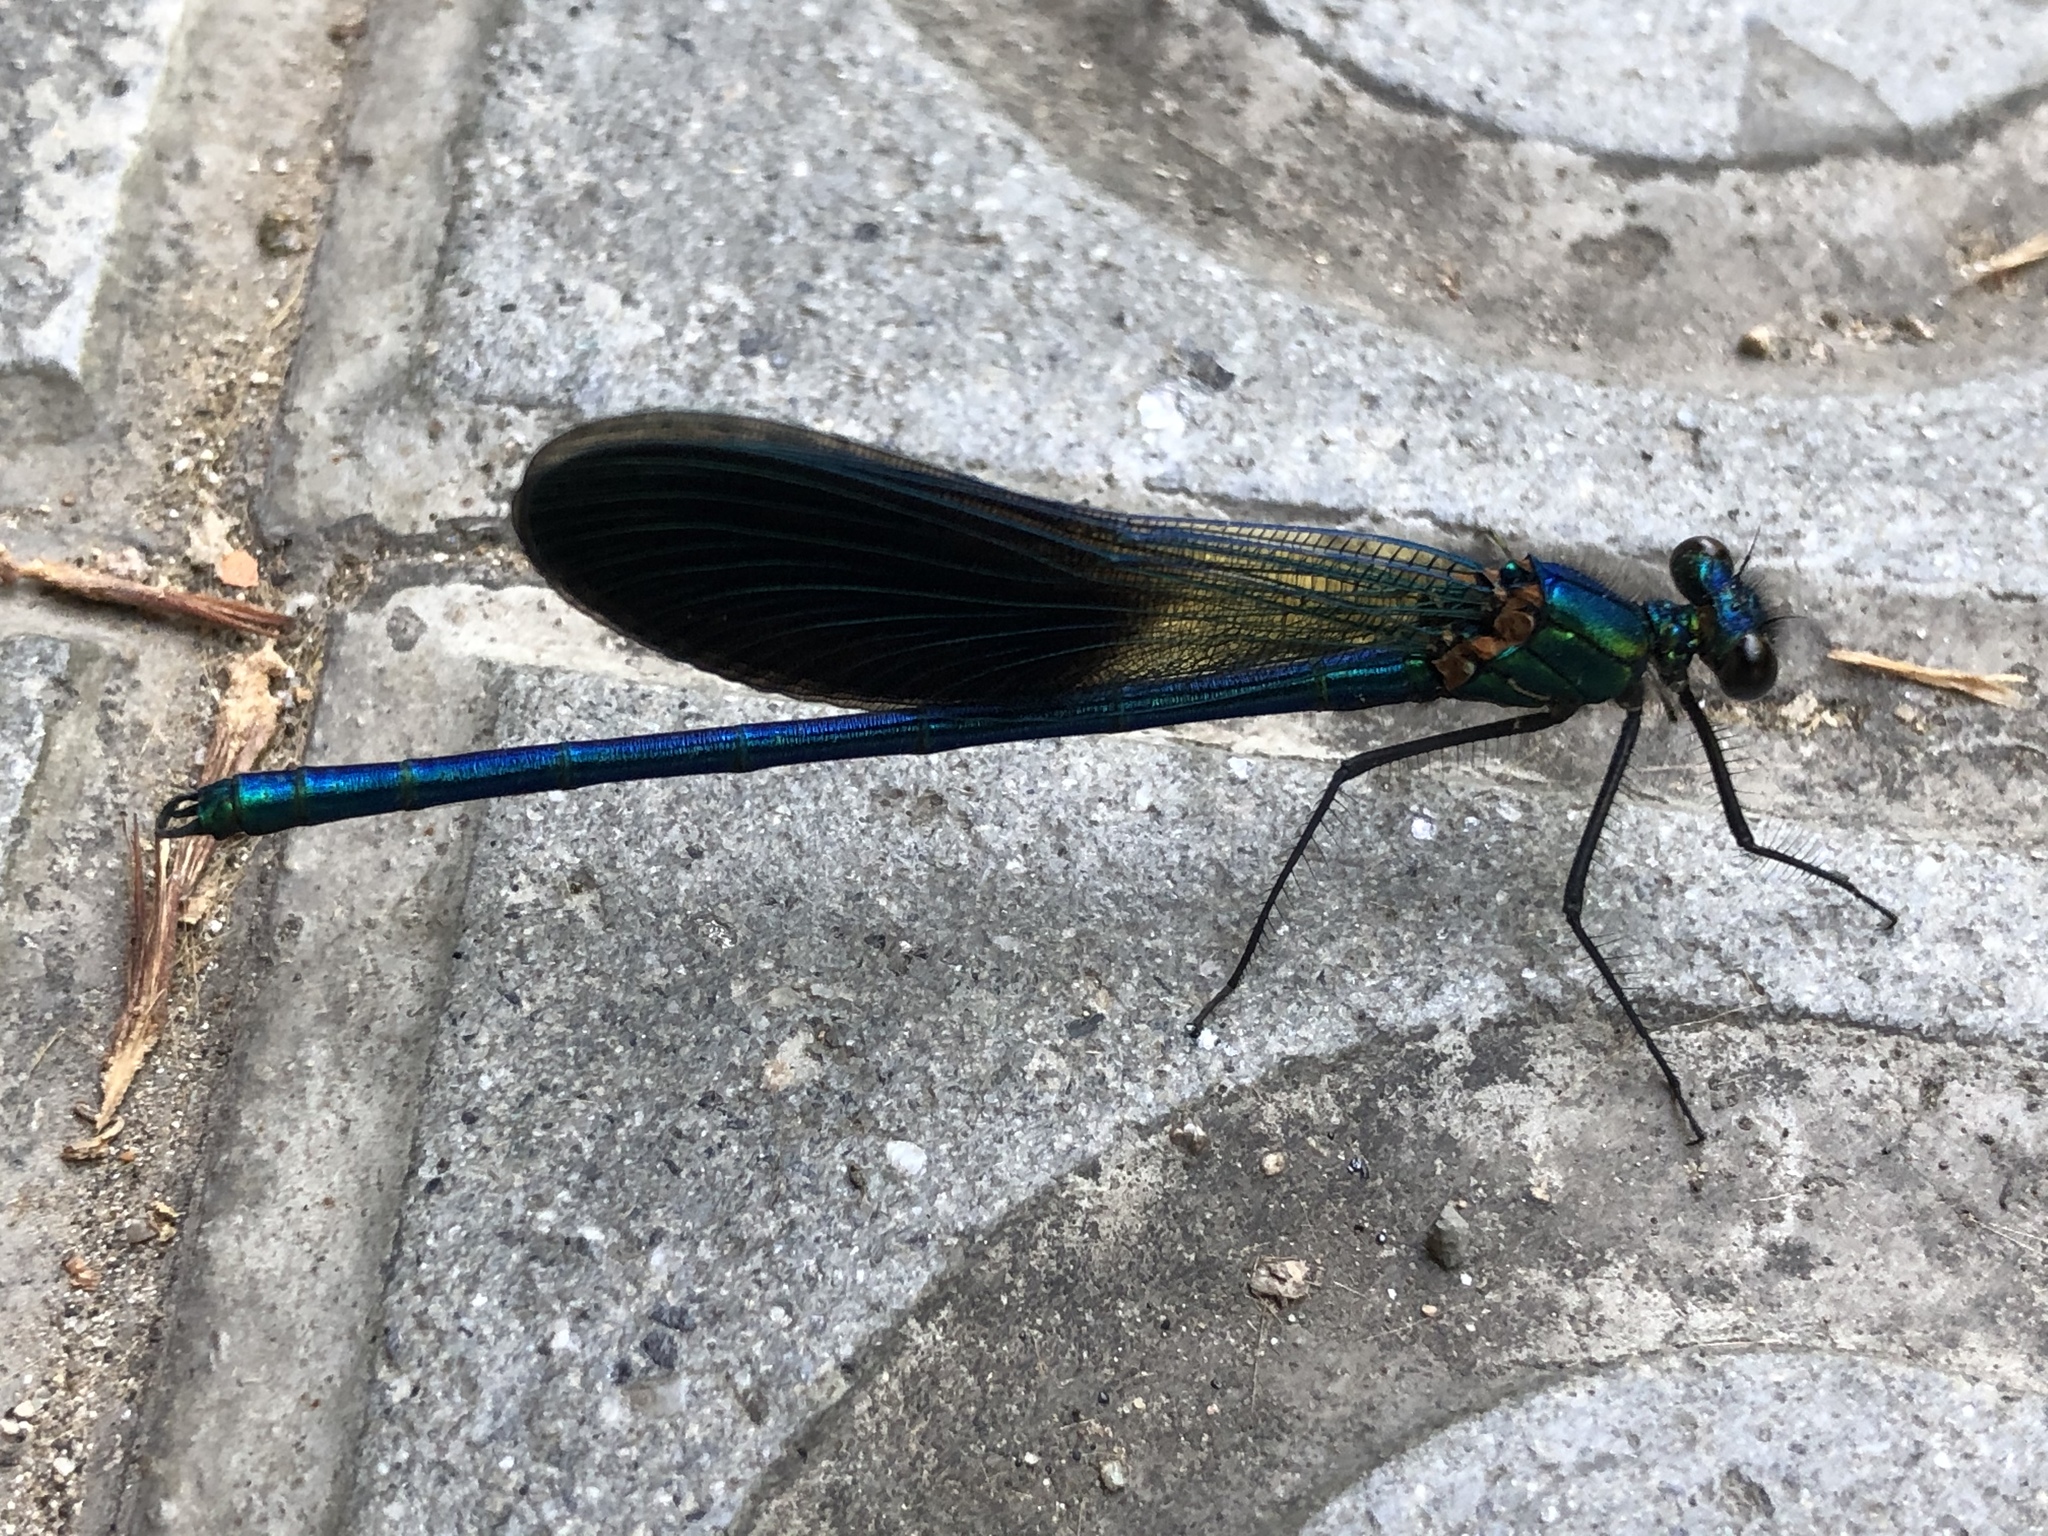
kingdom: Animalia
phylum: Arthropoda
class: Insecta
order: Odonata
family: Calopterygidae
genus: Calopteryx
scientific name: Calopteryx xanthostoma
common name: Western demoiselle
